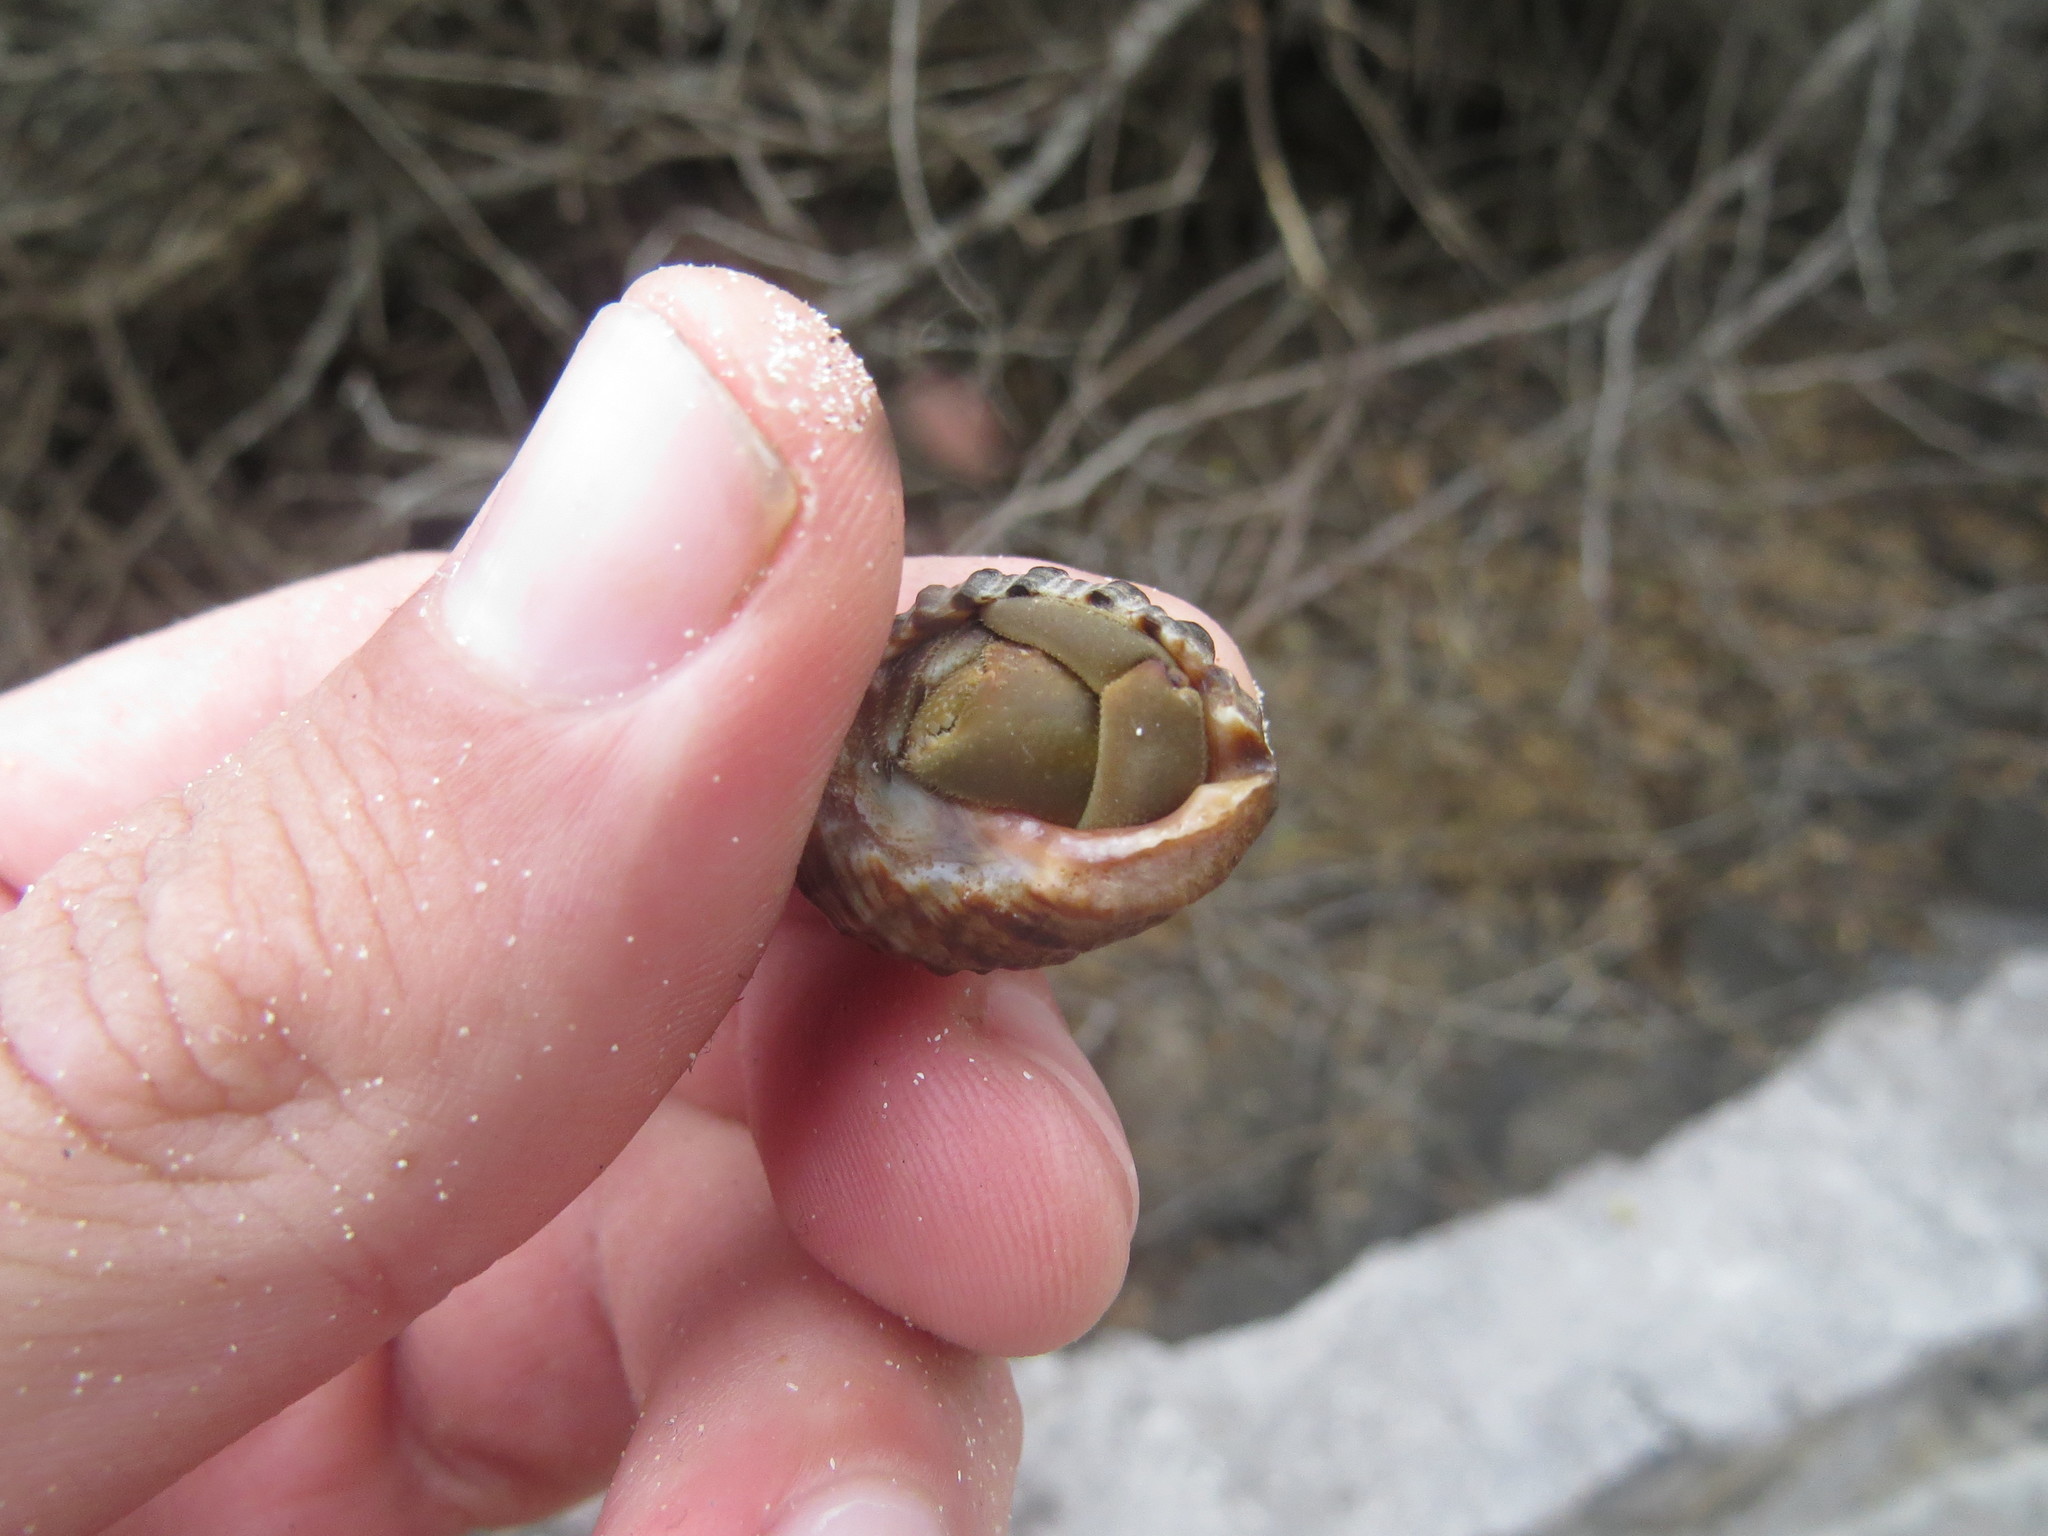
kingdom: Animalia
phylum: Arthropoda
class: Malacostraca
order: Decapoda
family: Coenobitidae
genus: Coenobita
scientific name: Coenobita compressus
